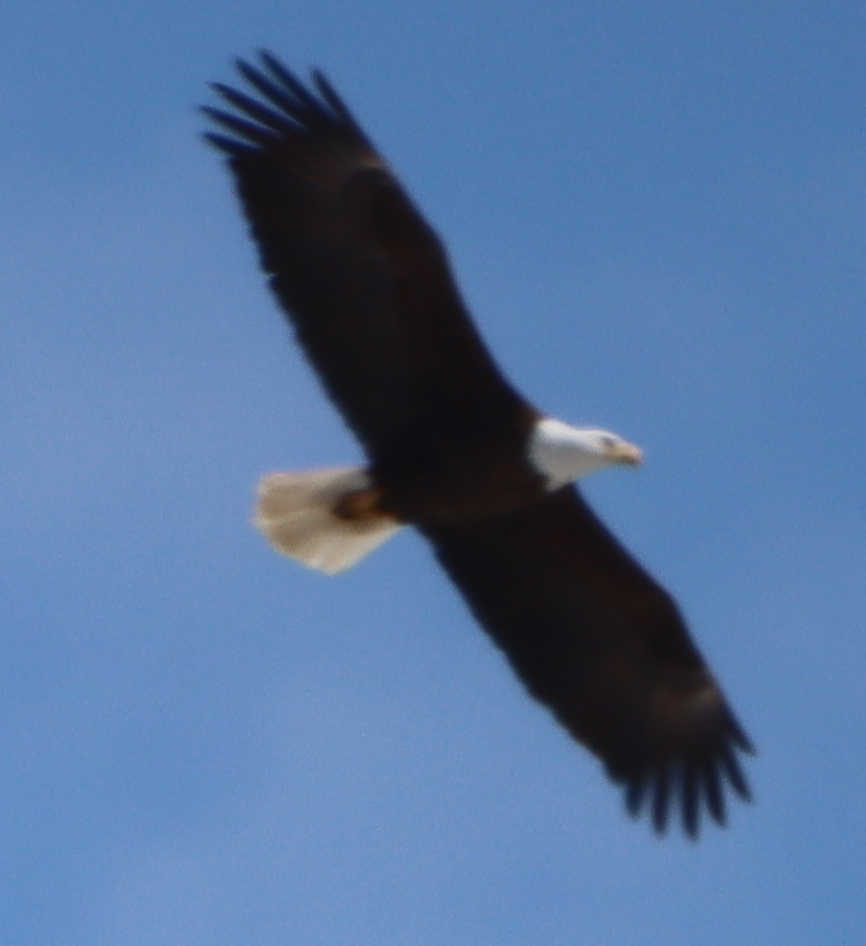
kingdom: Animalia
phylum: Chordata
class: Aves
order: Accipitriformes
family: Accipitridae
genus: Haliaeetus
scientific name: Haliaeetus leucocephalus
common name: Bald eagle
